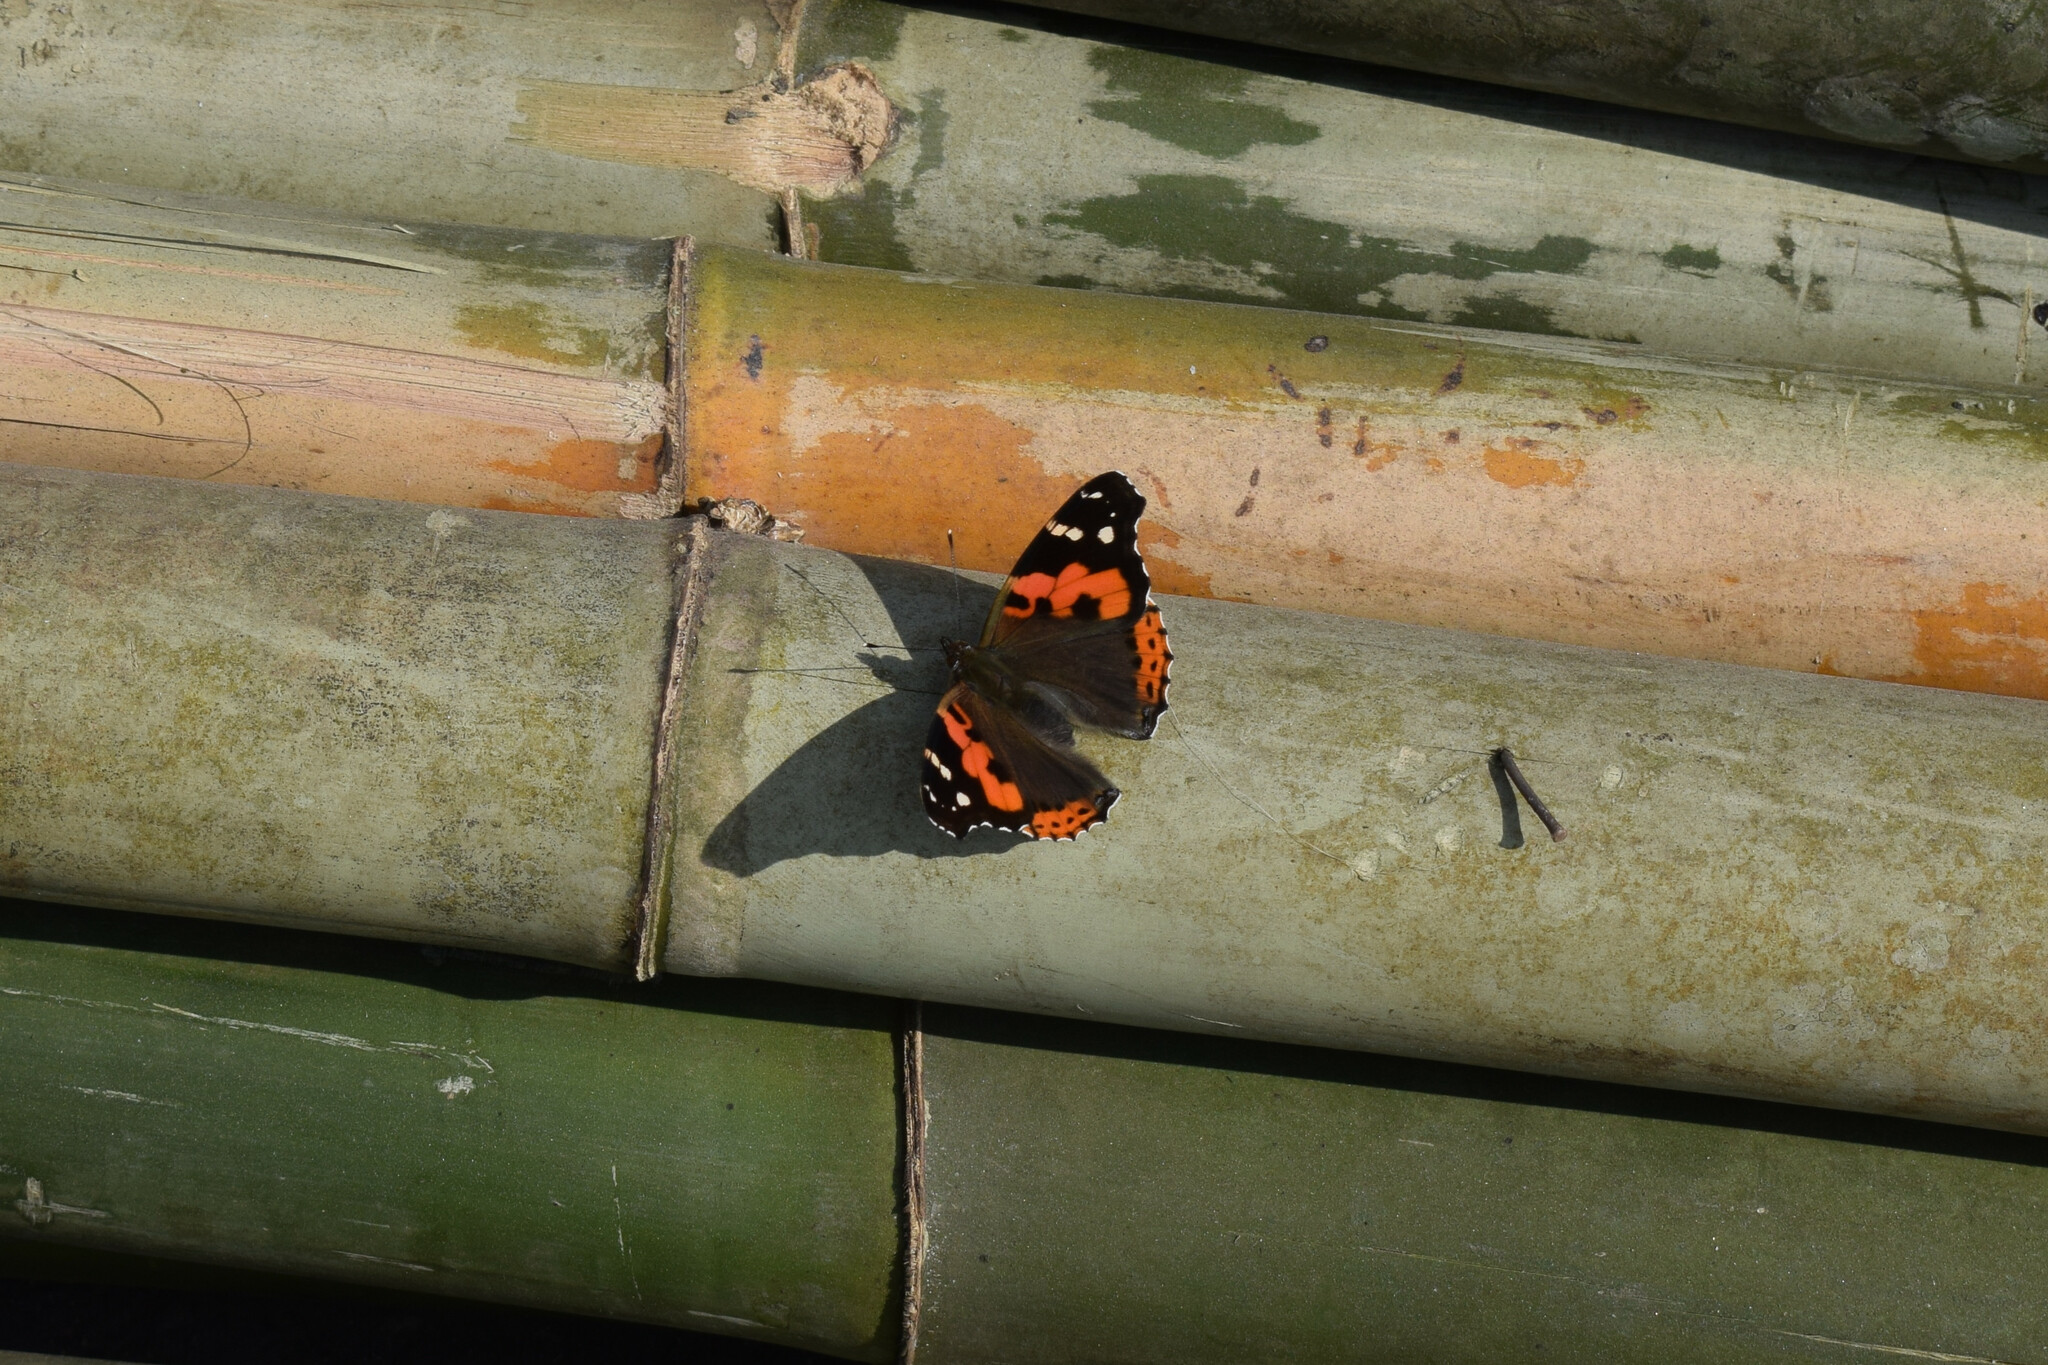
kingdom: Animalia
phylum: Arthropoda
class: Insecta
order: Lepidoptera
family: Nymphalidae
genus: Vanessa
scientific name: Vanessa indica
